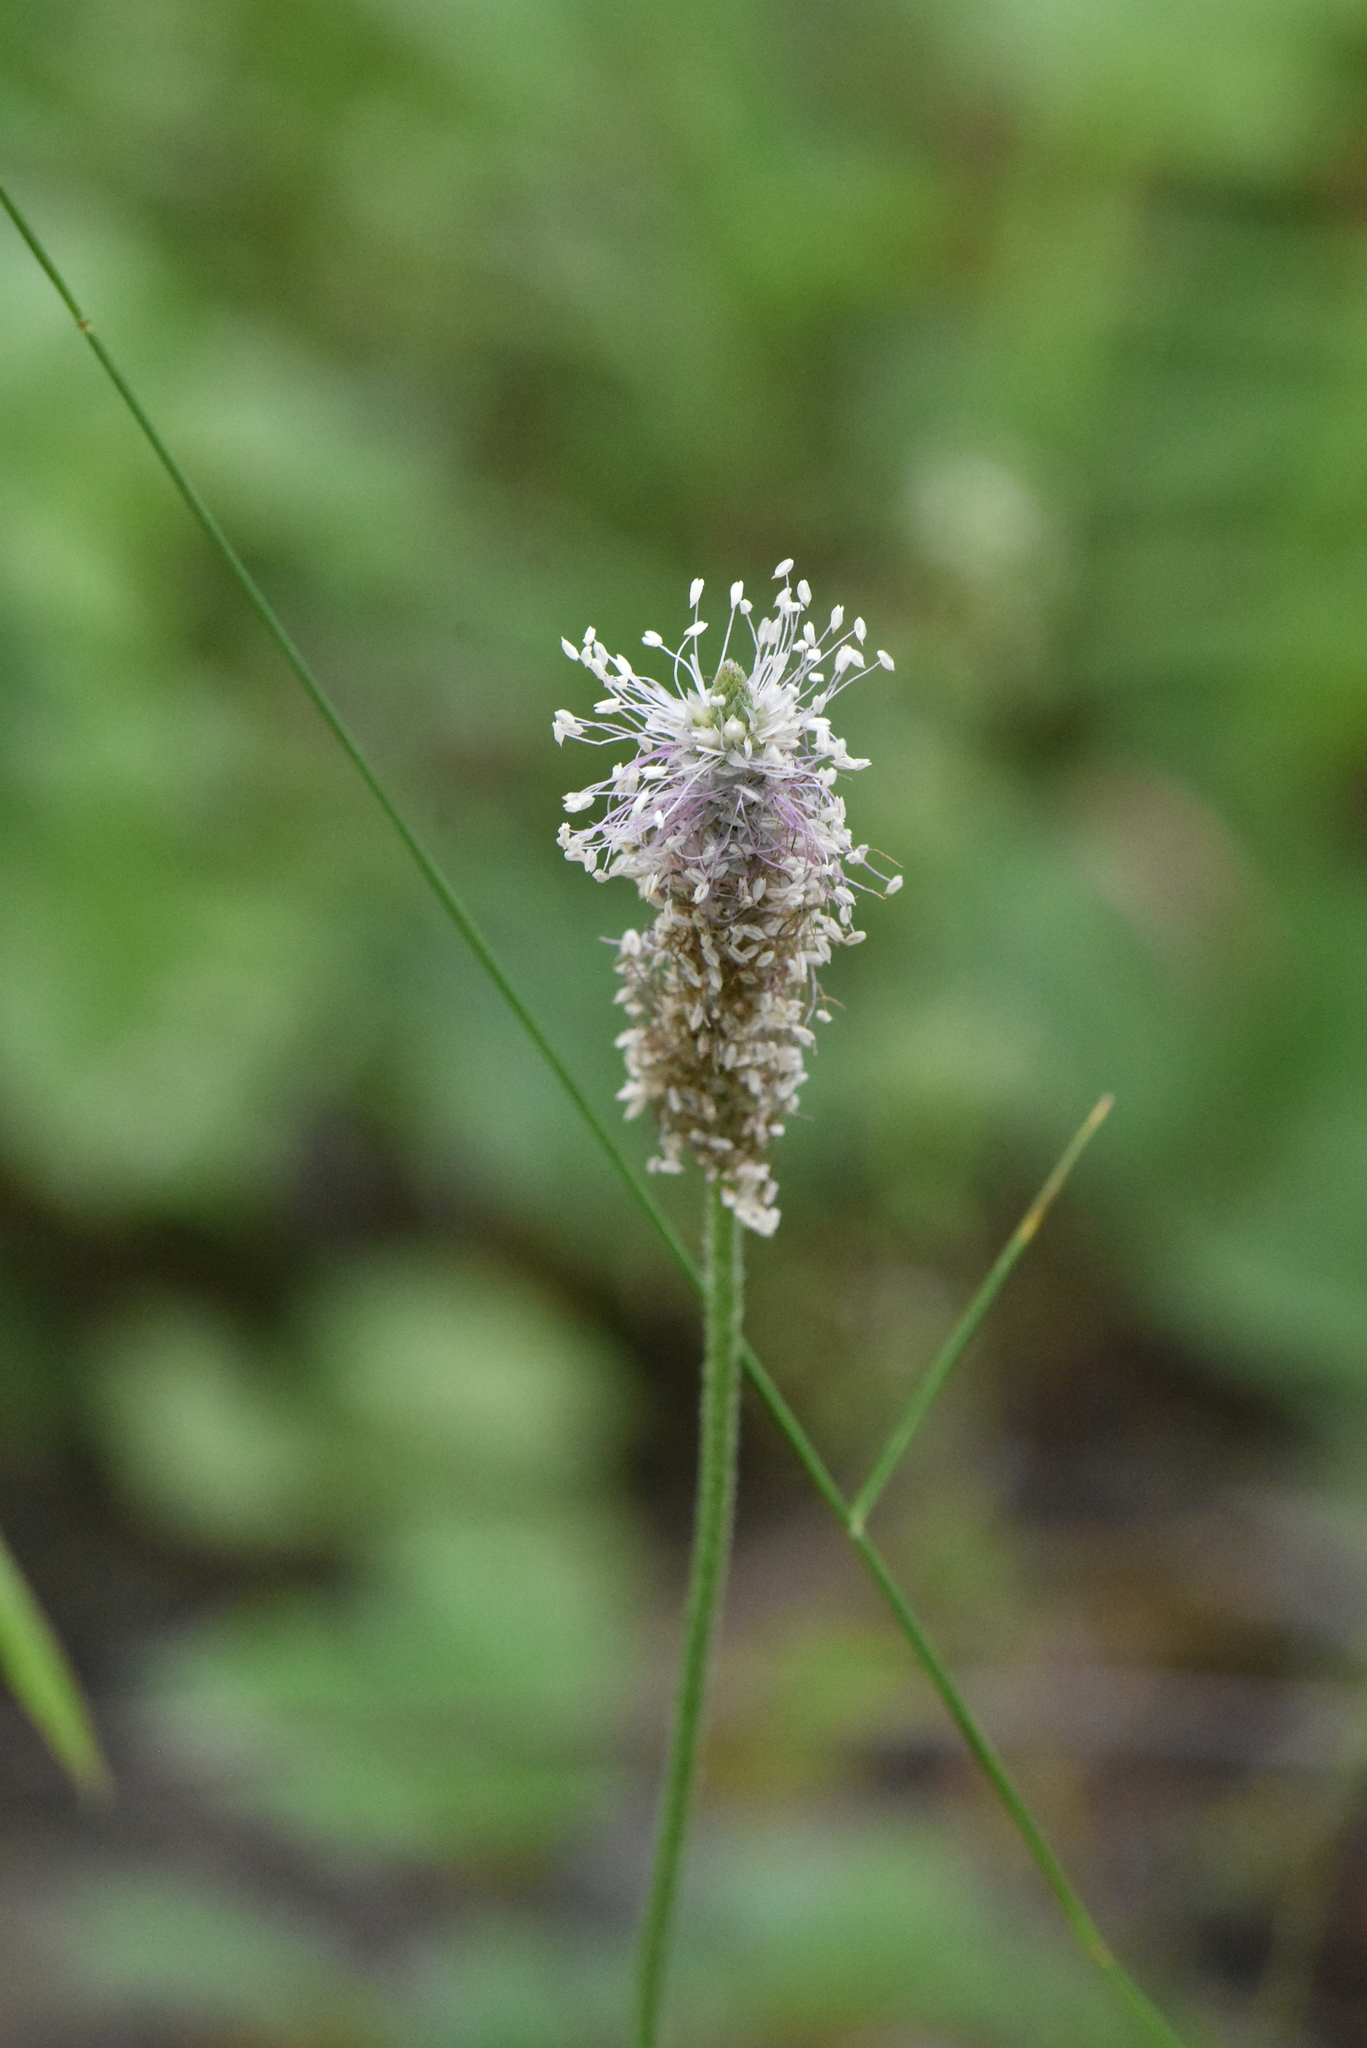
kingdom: Plantae
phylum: Tracheophyta
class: Magnoliopsida
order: Lamiales
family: Plantaginaceae
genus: Plantago
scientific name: Plantago media
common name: Hoary plantain
